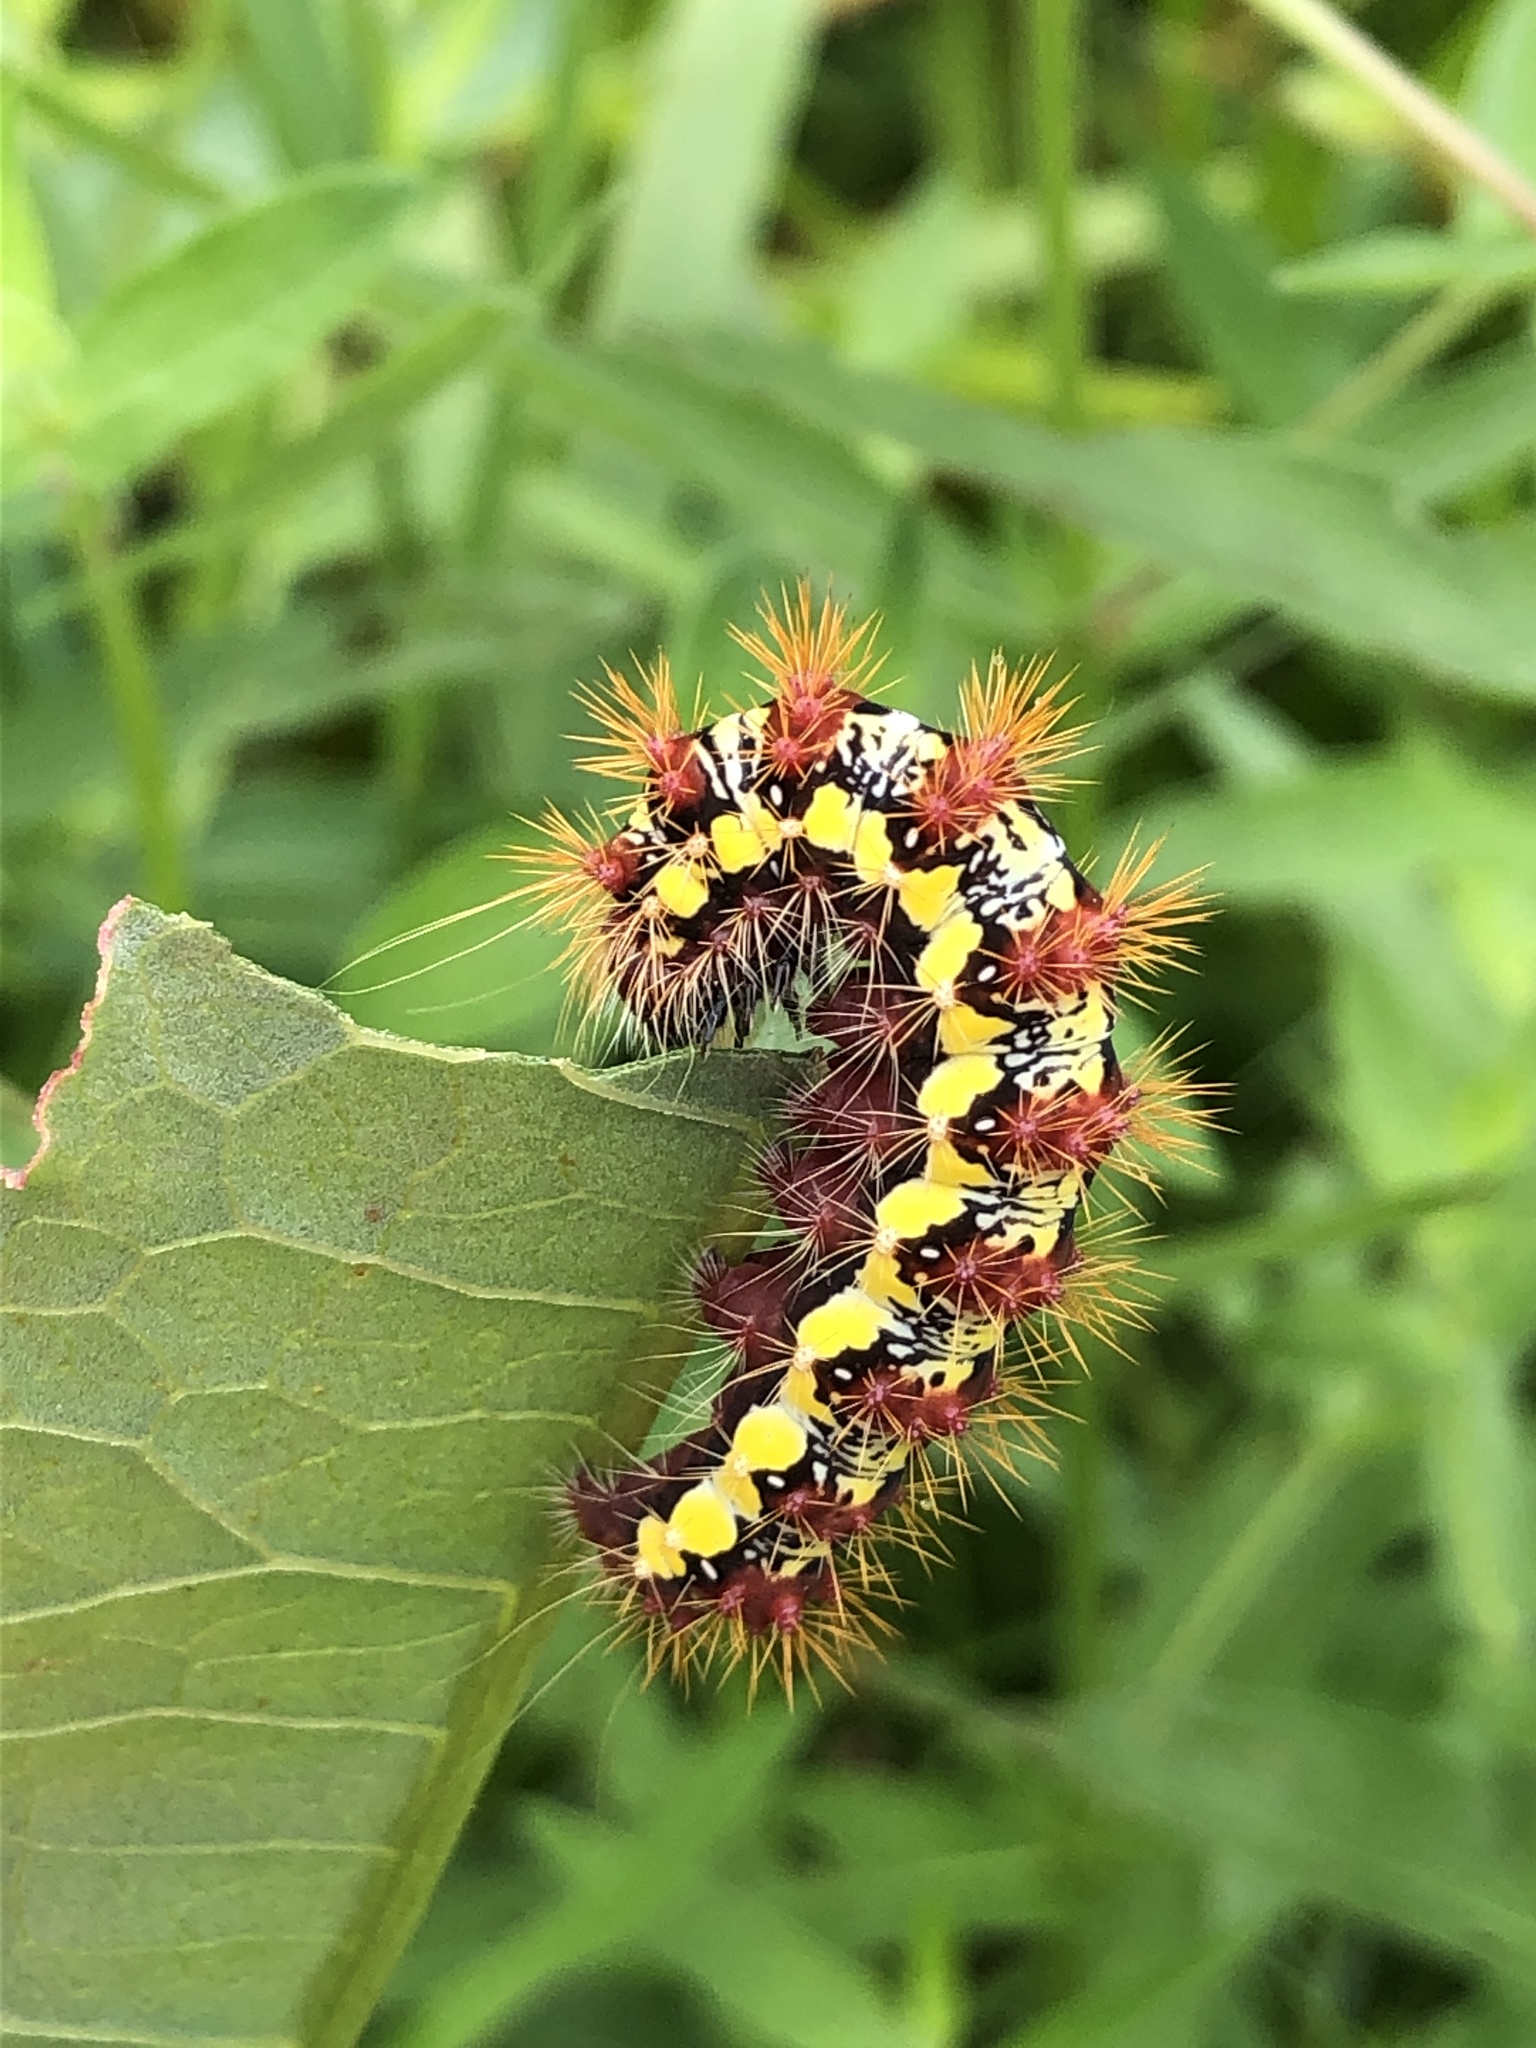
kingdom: Animalia
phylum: Arthropoda
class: Insecta
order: Lepidoptera
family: Noctuidae
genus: Acronicta
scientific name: Acronicta oblinita
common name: Smeared dagger
